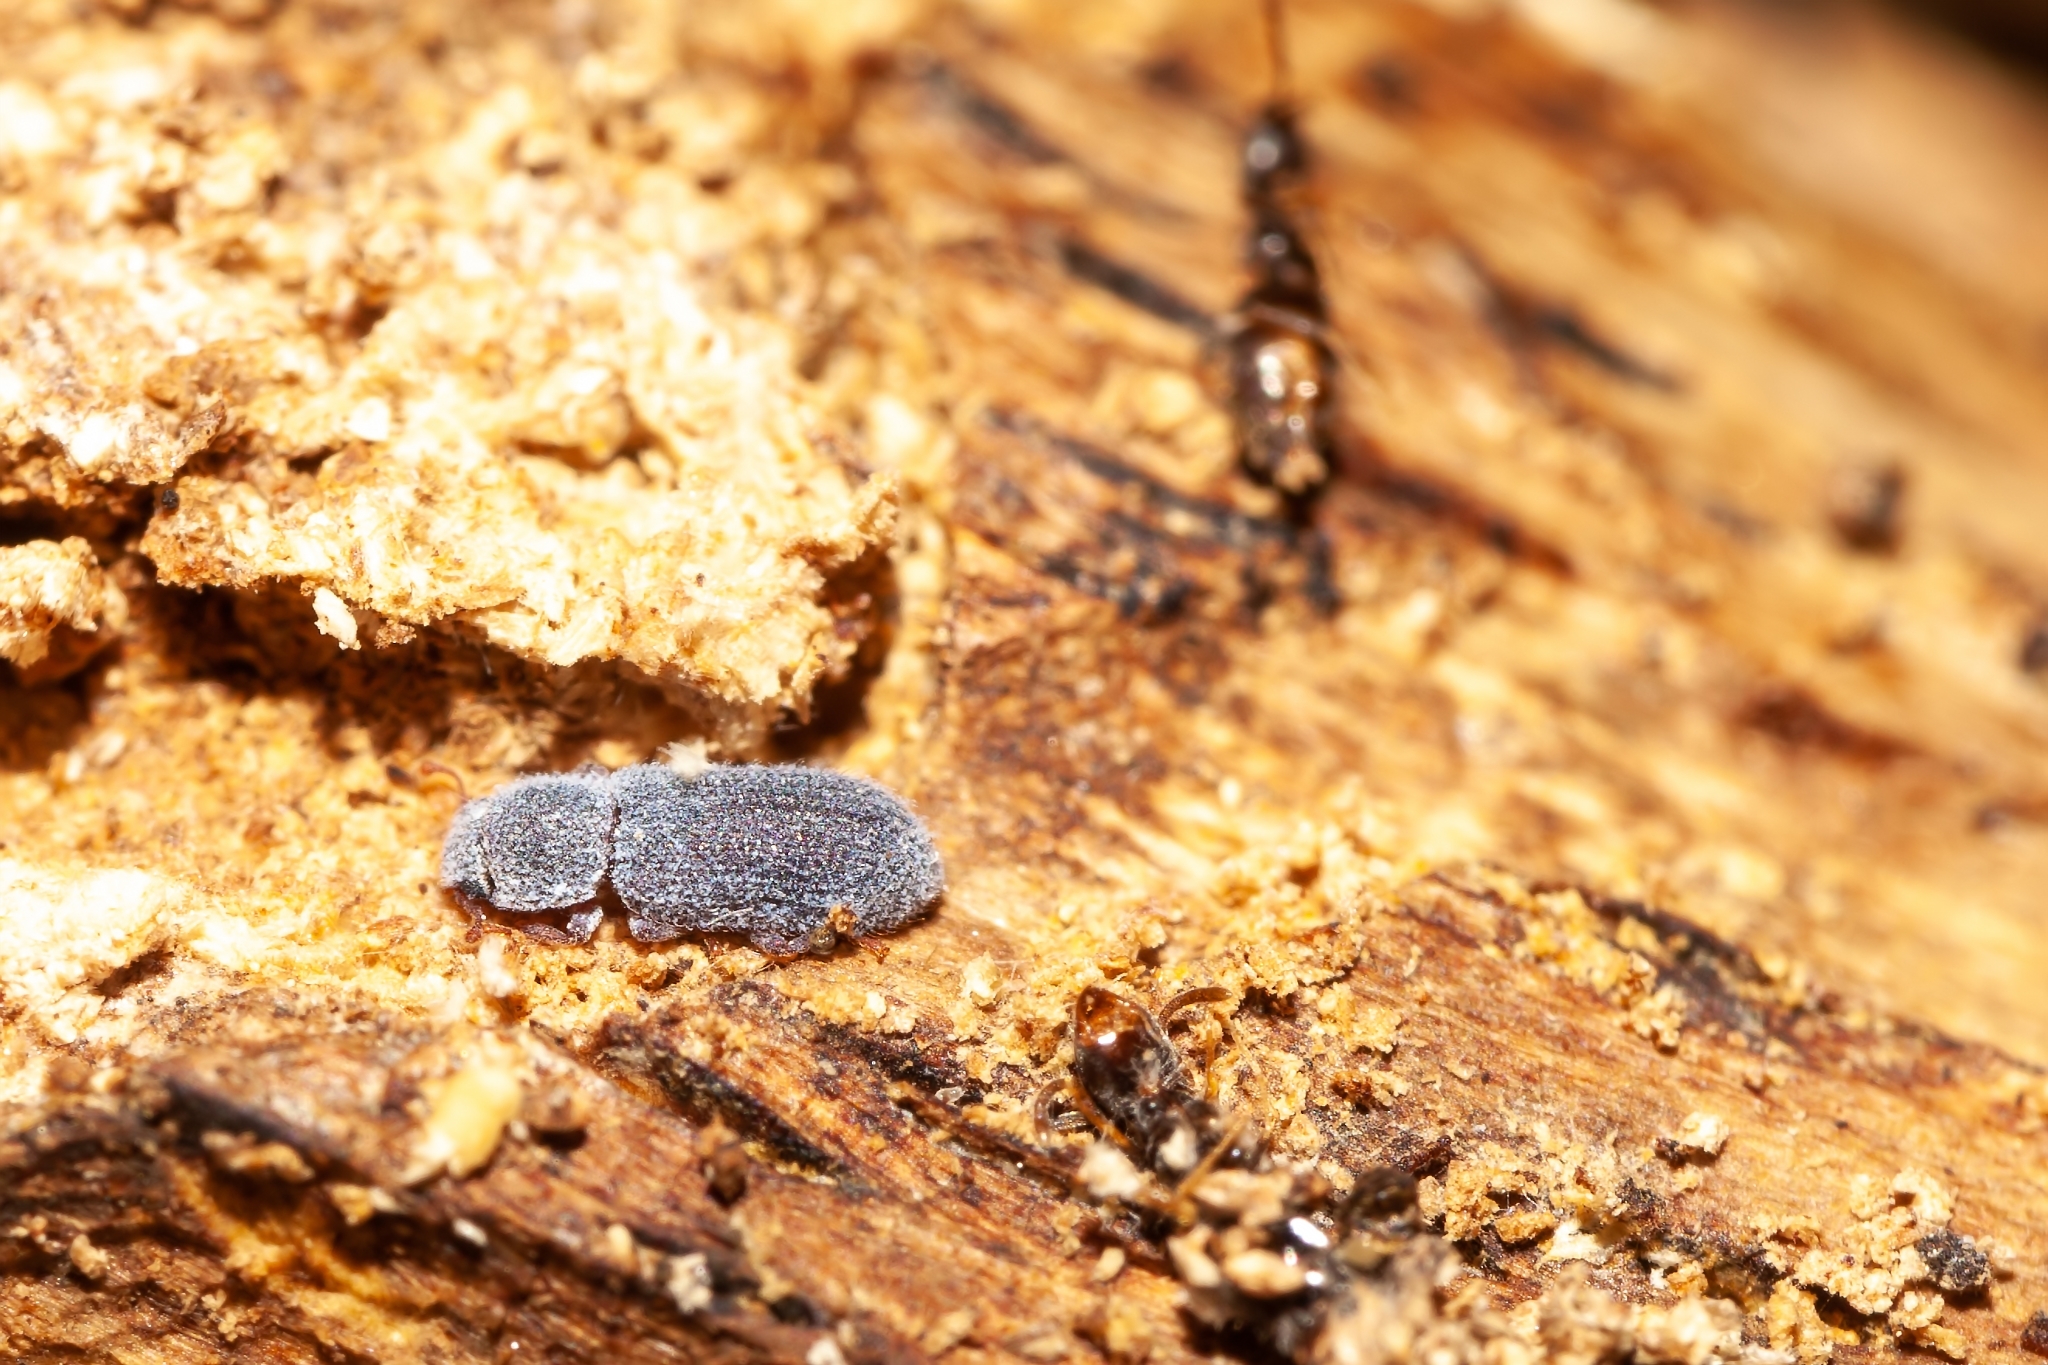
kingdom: Animalia
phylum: Arthropoda
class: Insecta
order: Coleoptera
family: Zopheridae
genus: Endeitoma
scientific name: Endeitoma granulata
